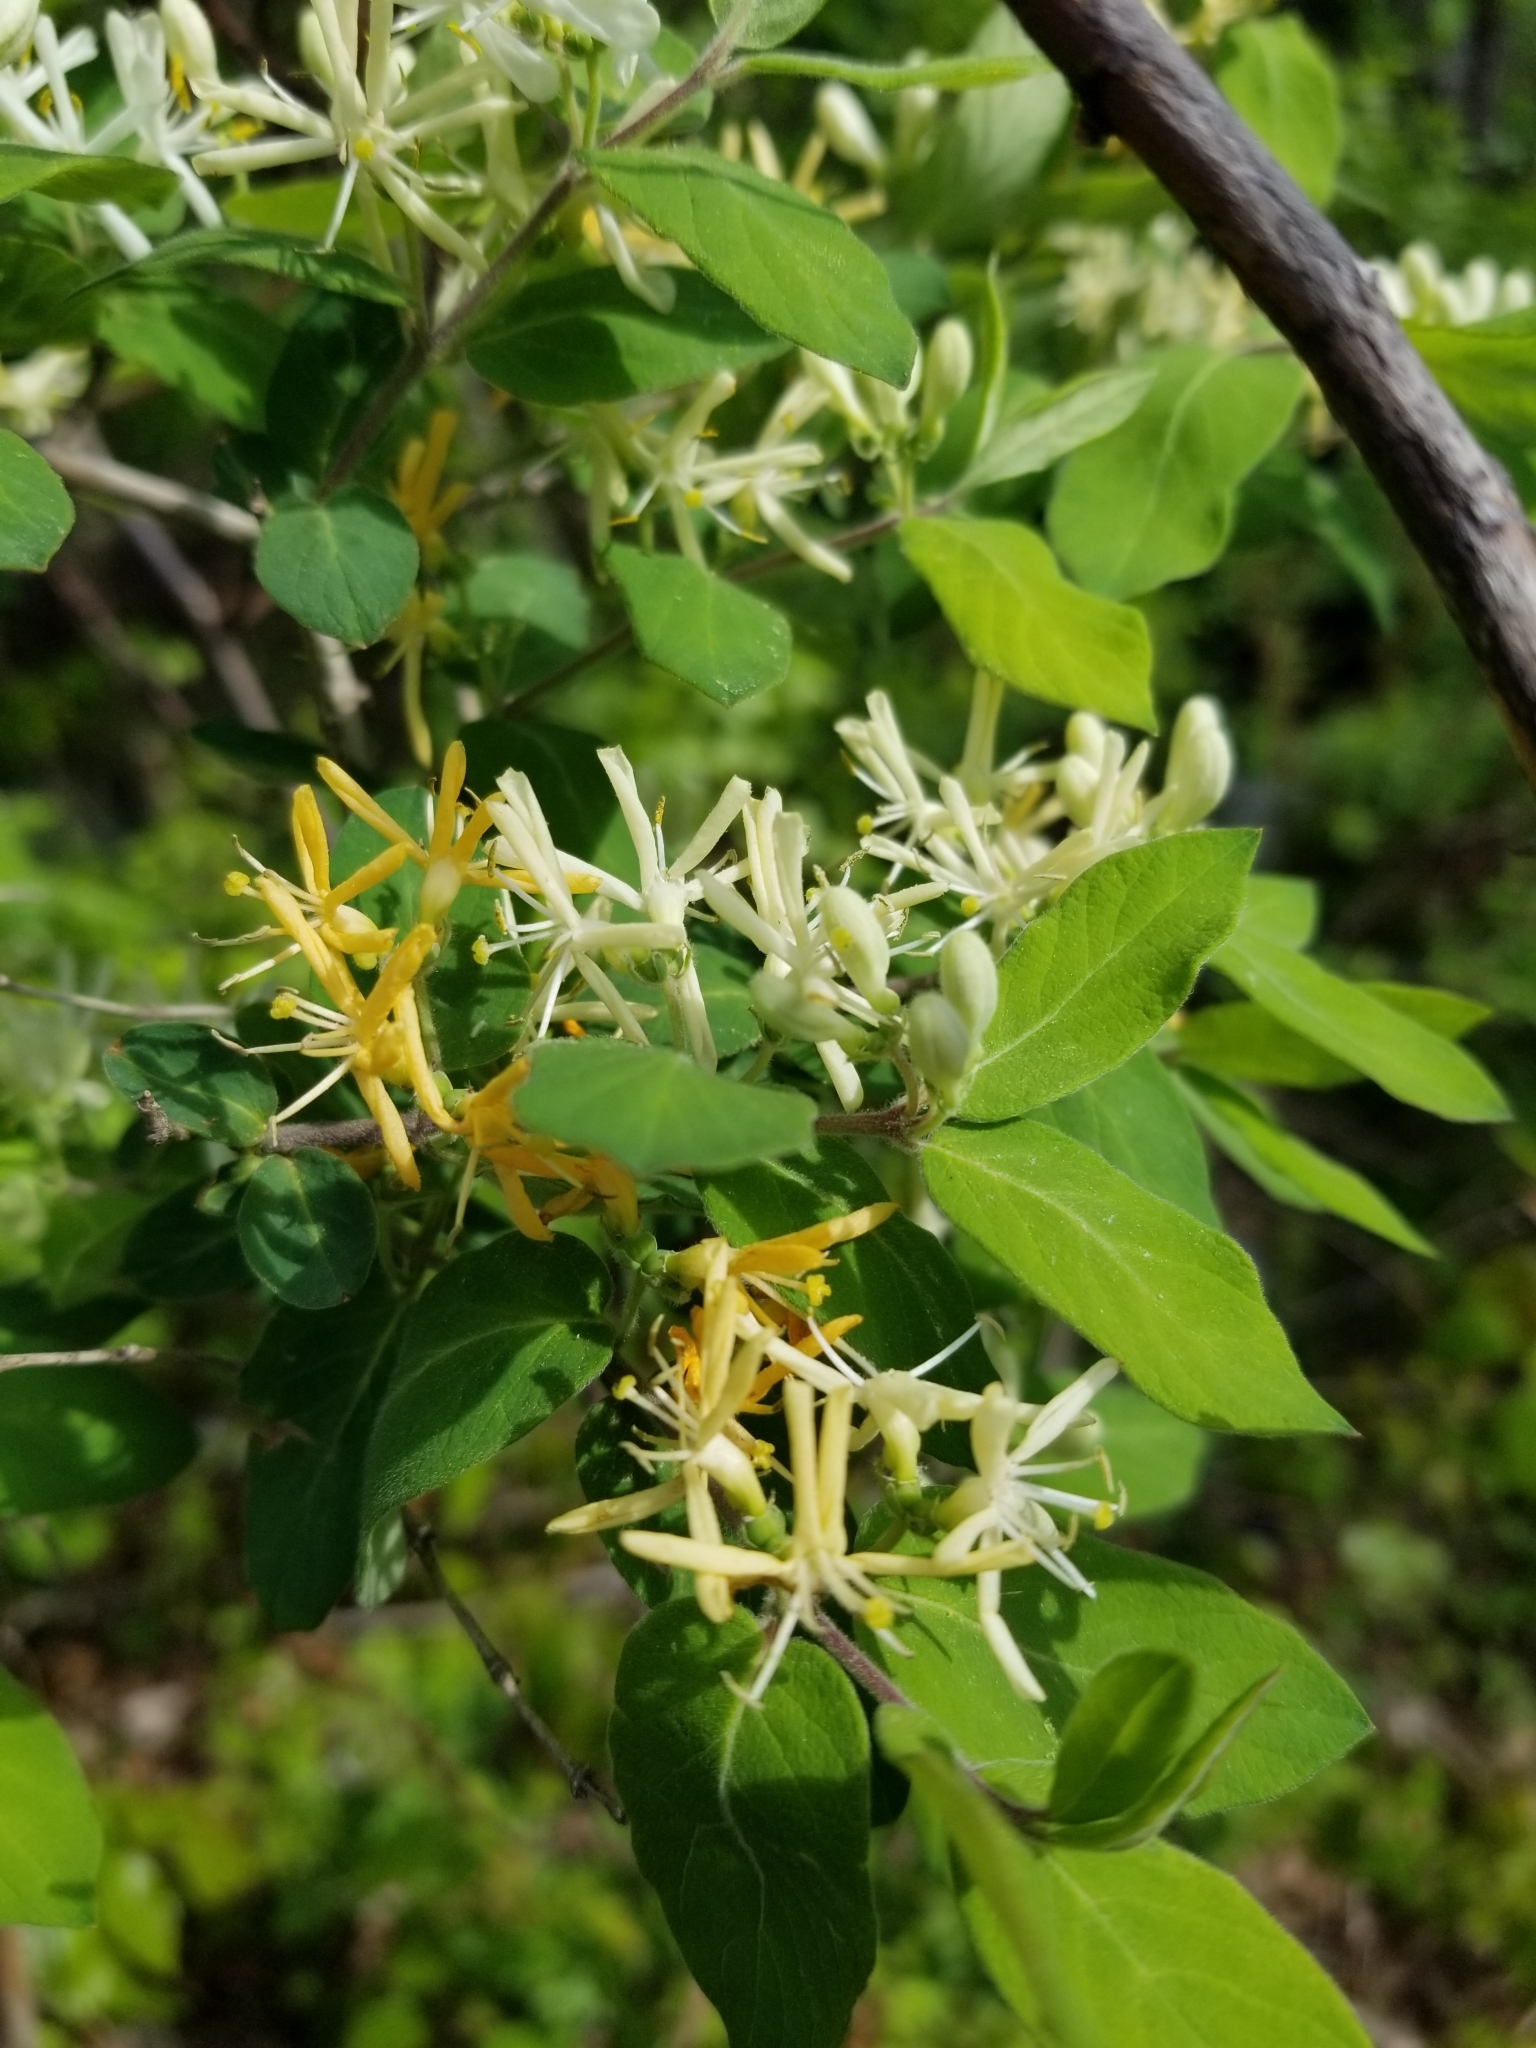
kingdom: Plantae
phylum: Tracheophyta
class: Magnoliopsida
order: Dipsacales
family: Caprifoliaceae
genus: Lonicera
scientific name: Lonicera japonica
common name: Japanese honeysuckle
